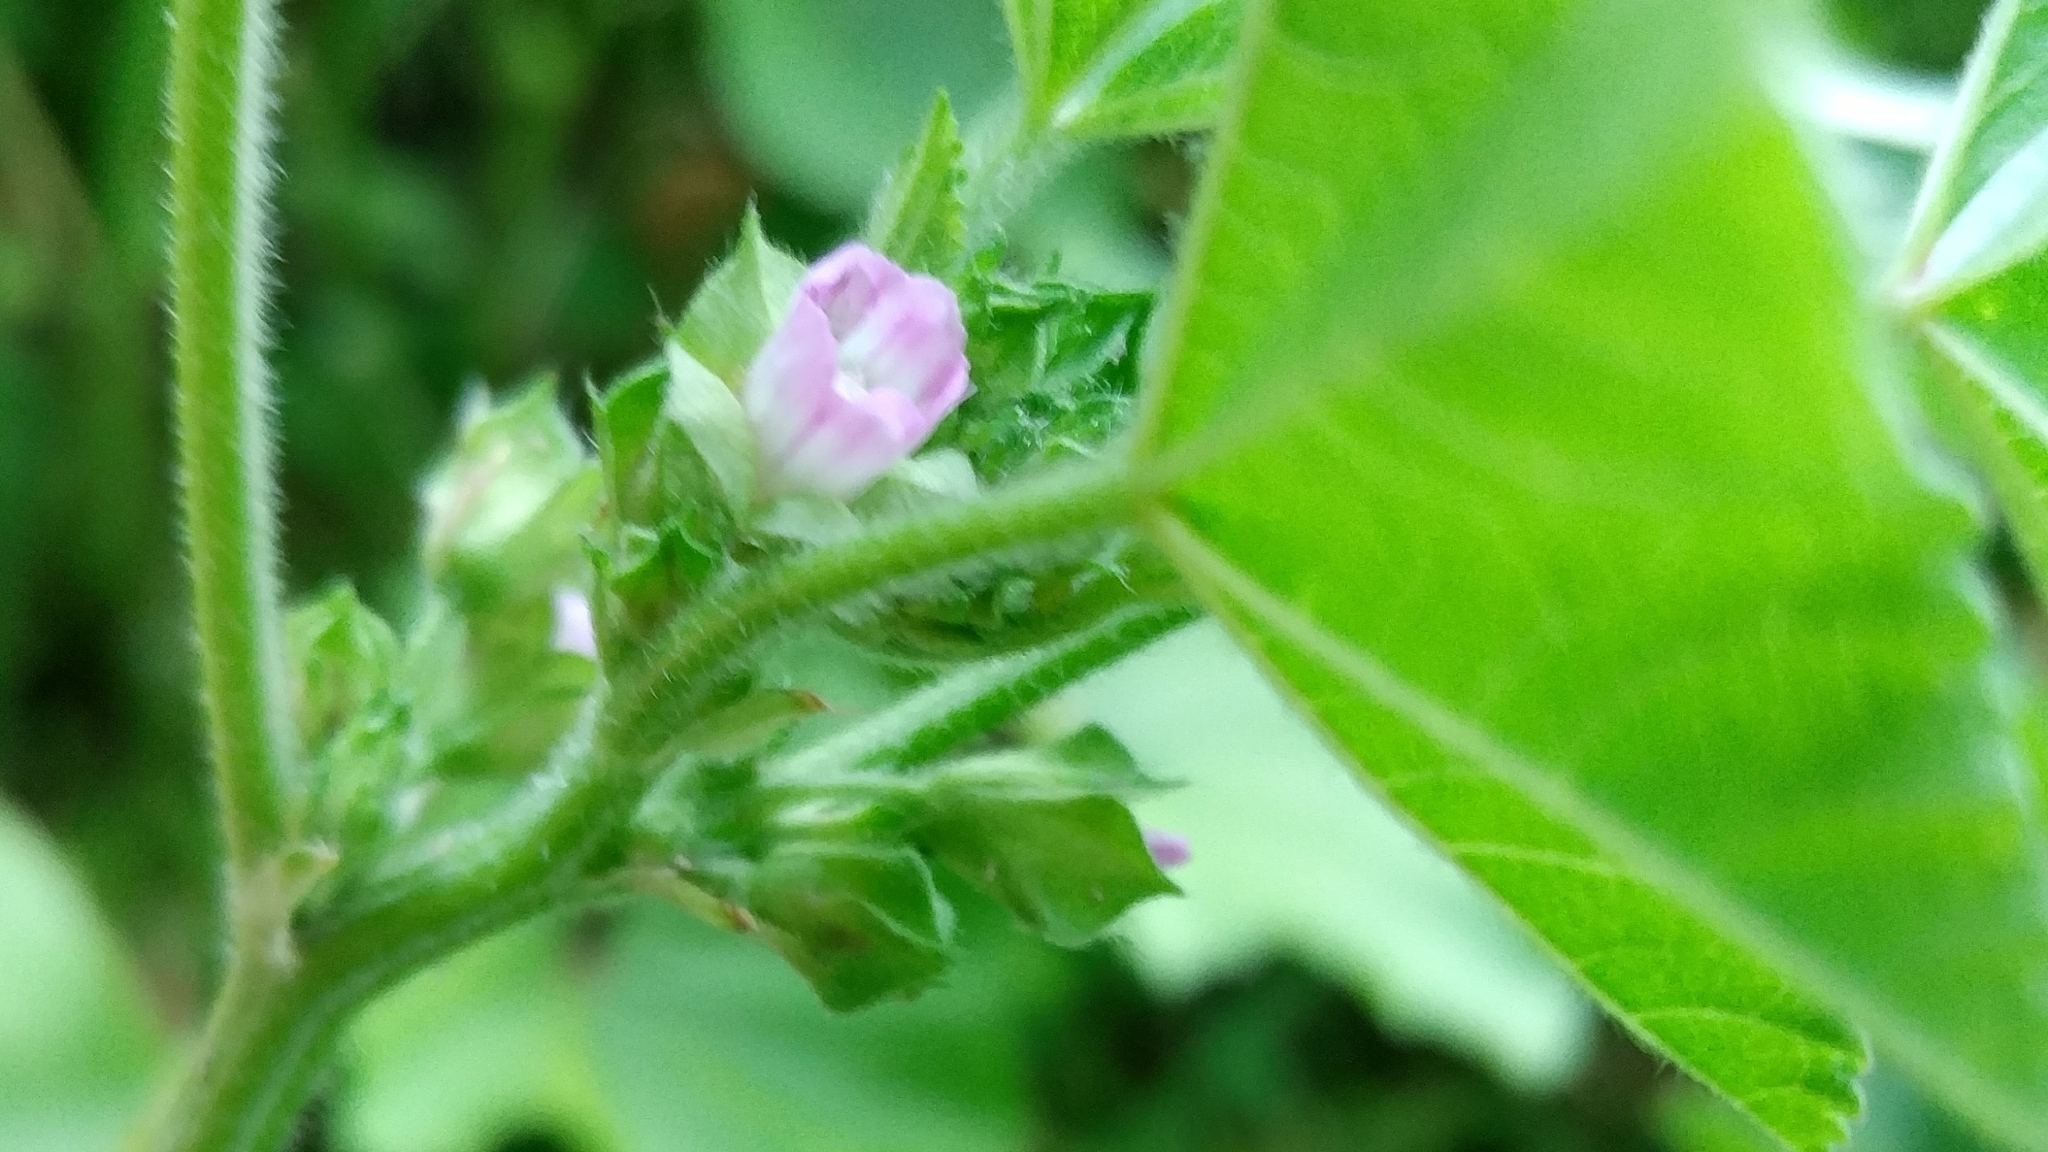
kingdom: Plantae
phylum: Tracheophyta
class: Magnoliopsida
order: Malvales
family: Malvaceae
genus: Malva
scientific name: Malva parviflora
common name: Least mallow
